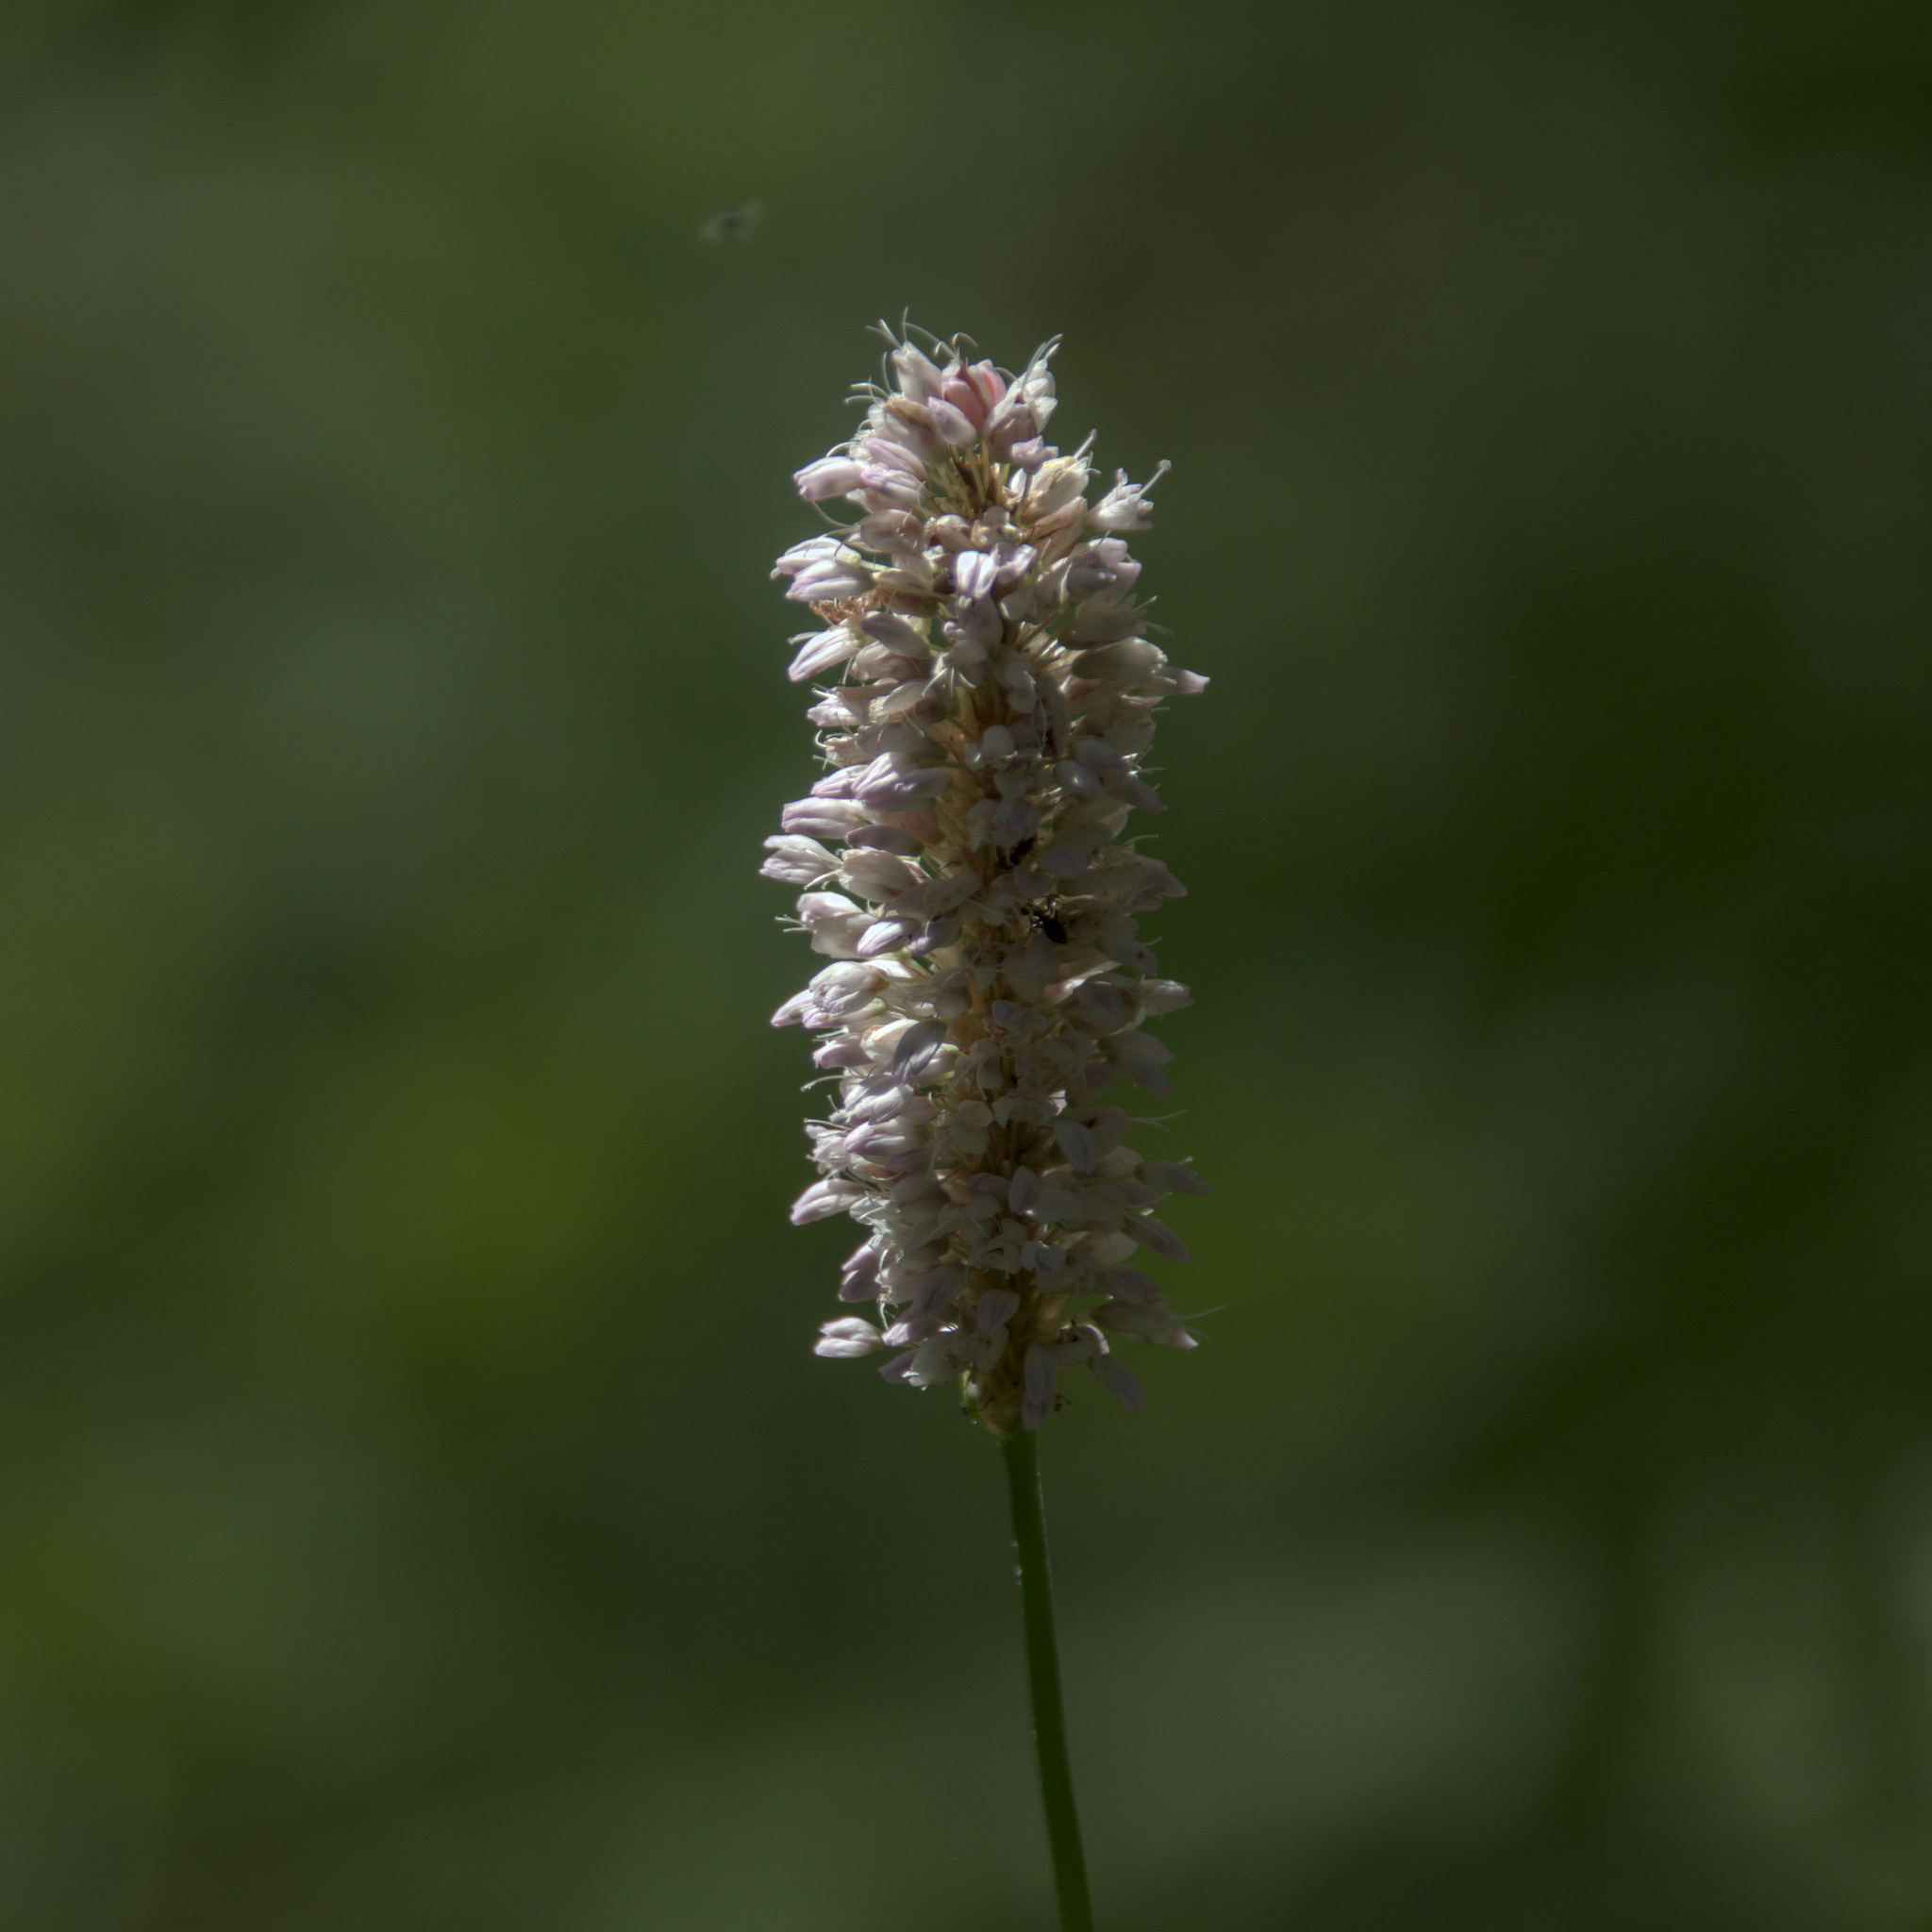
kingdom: Plantae
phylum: Tracheophyta
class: Magnoliopsida
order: Caryophyllales
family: Polygonaceae
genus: Bistorta
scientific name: Bistorta officinalis
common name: Common bistort
